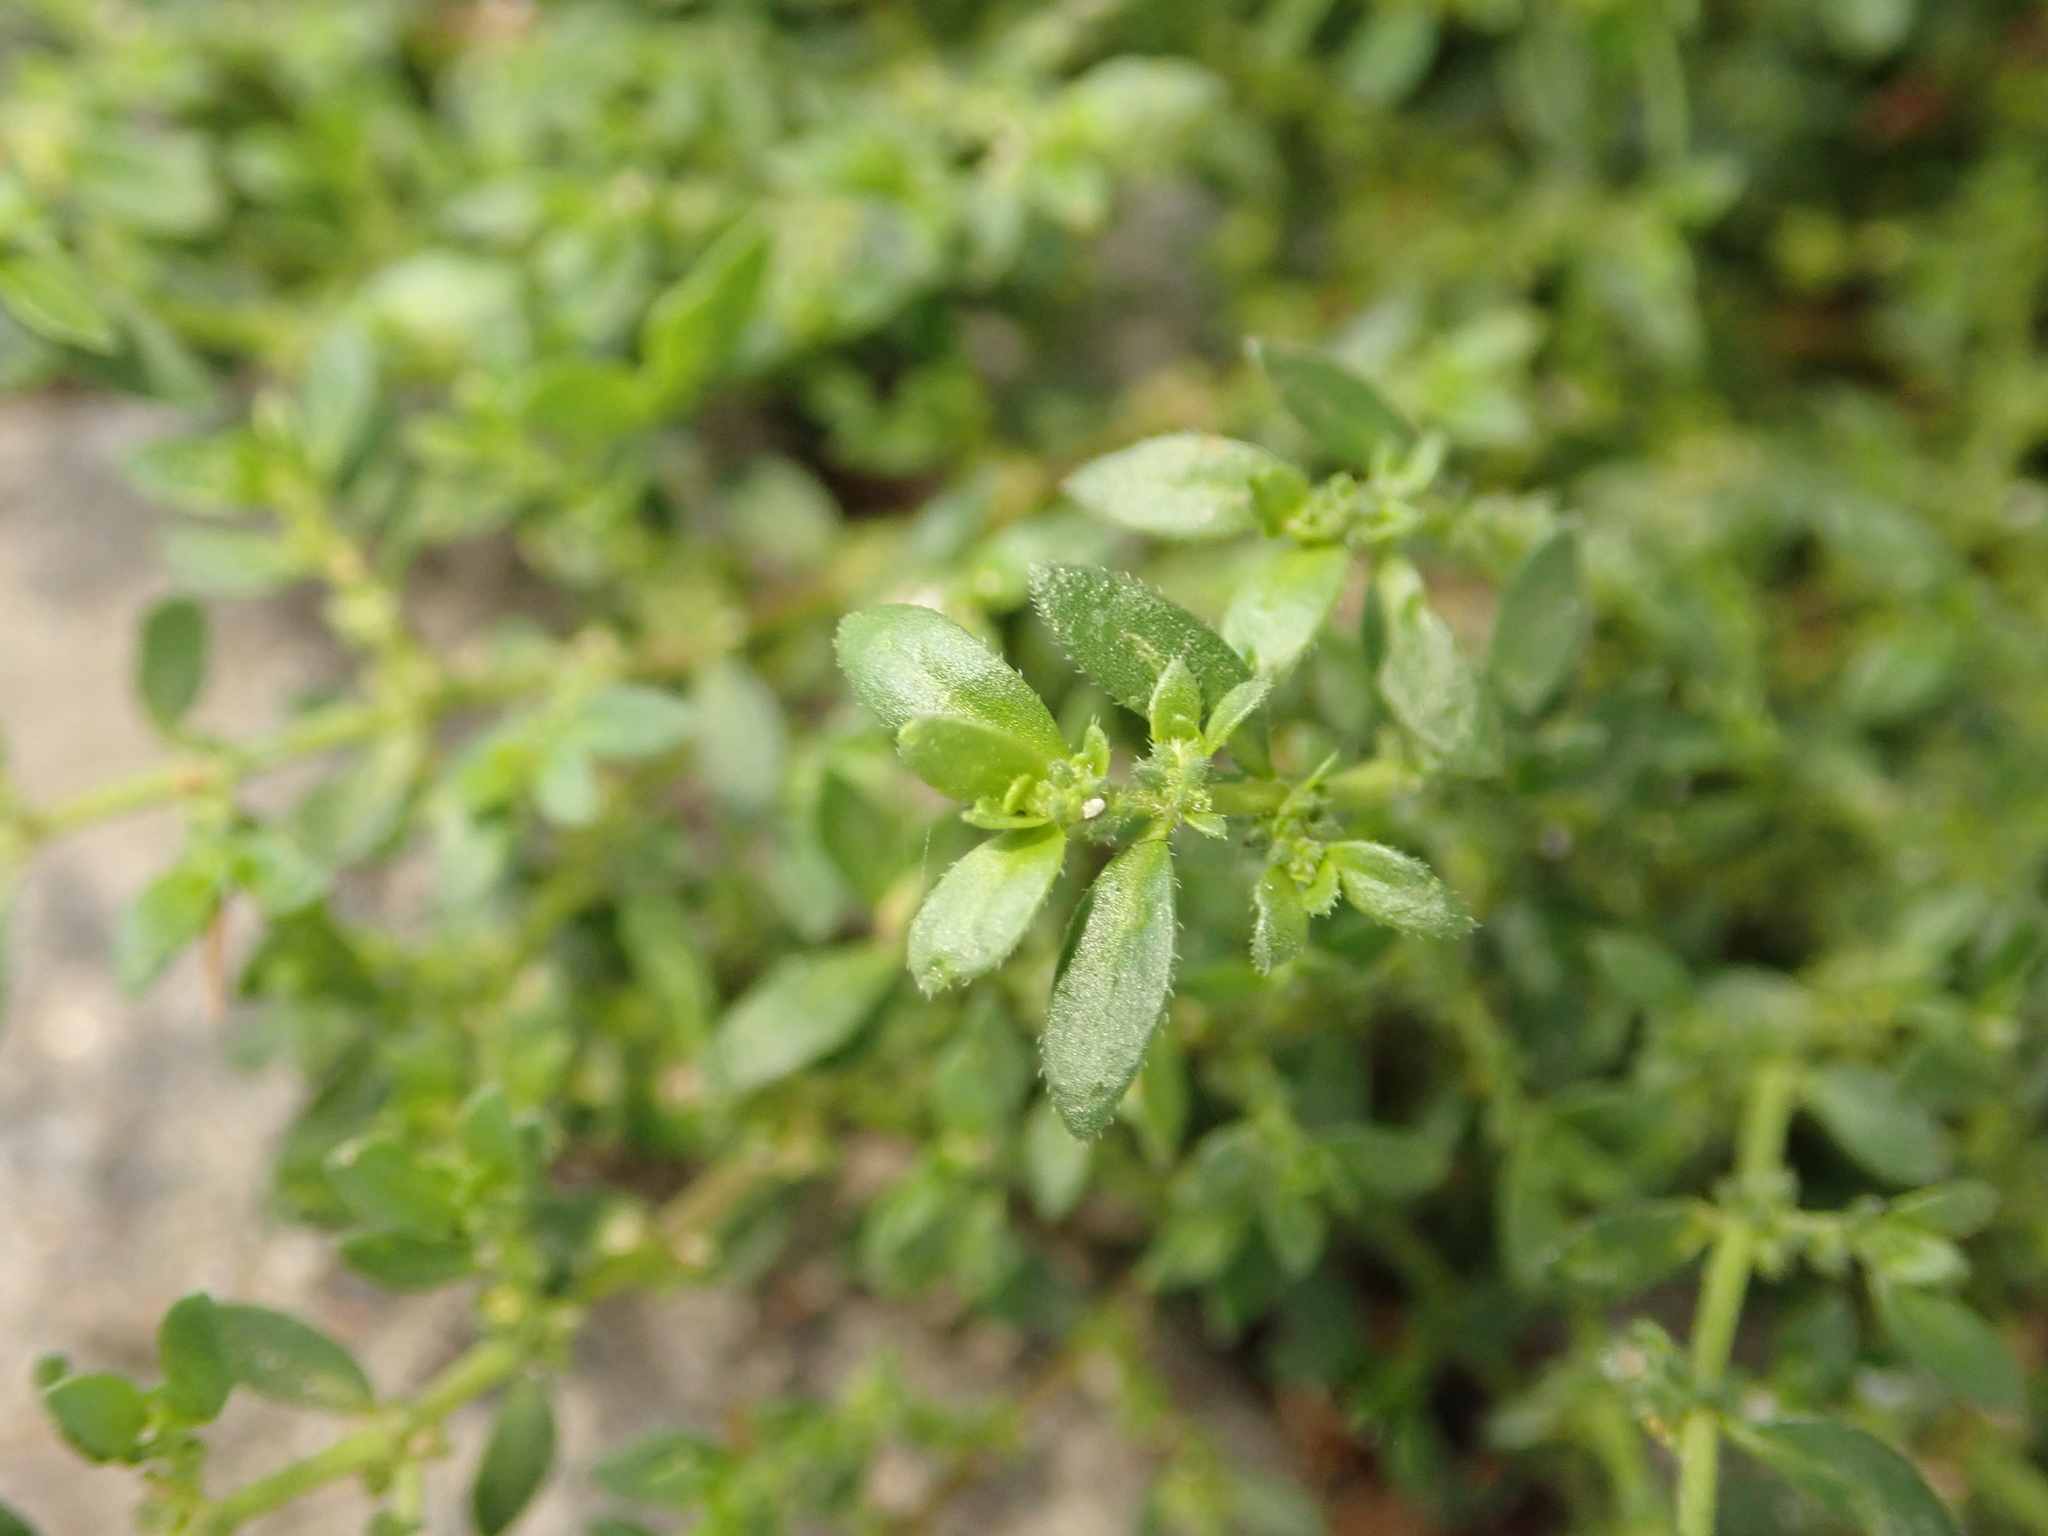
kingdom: Plantae
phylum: Tracheophyta
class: Magnoliopsida
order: Caryophyllales
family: Caryophyllaceae
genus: Herniaria
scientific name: Herniaria hirsuta
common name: Hairy rupturewort
